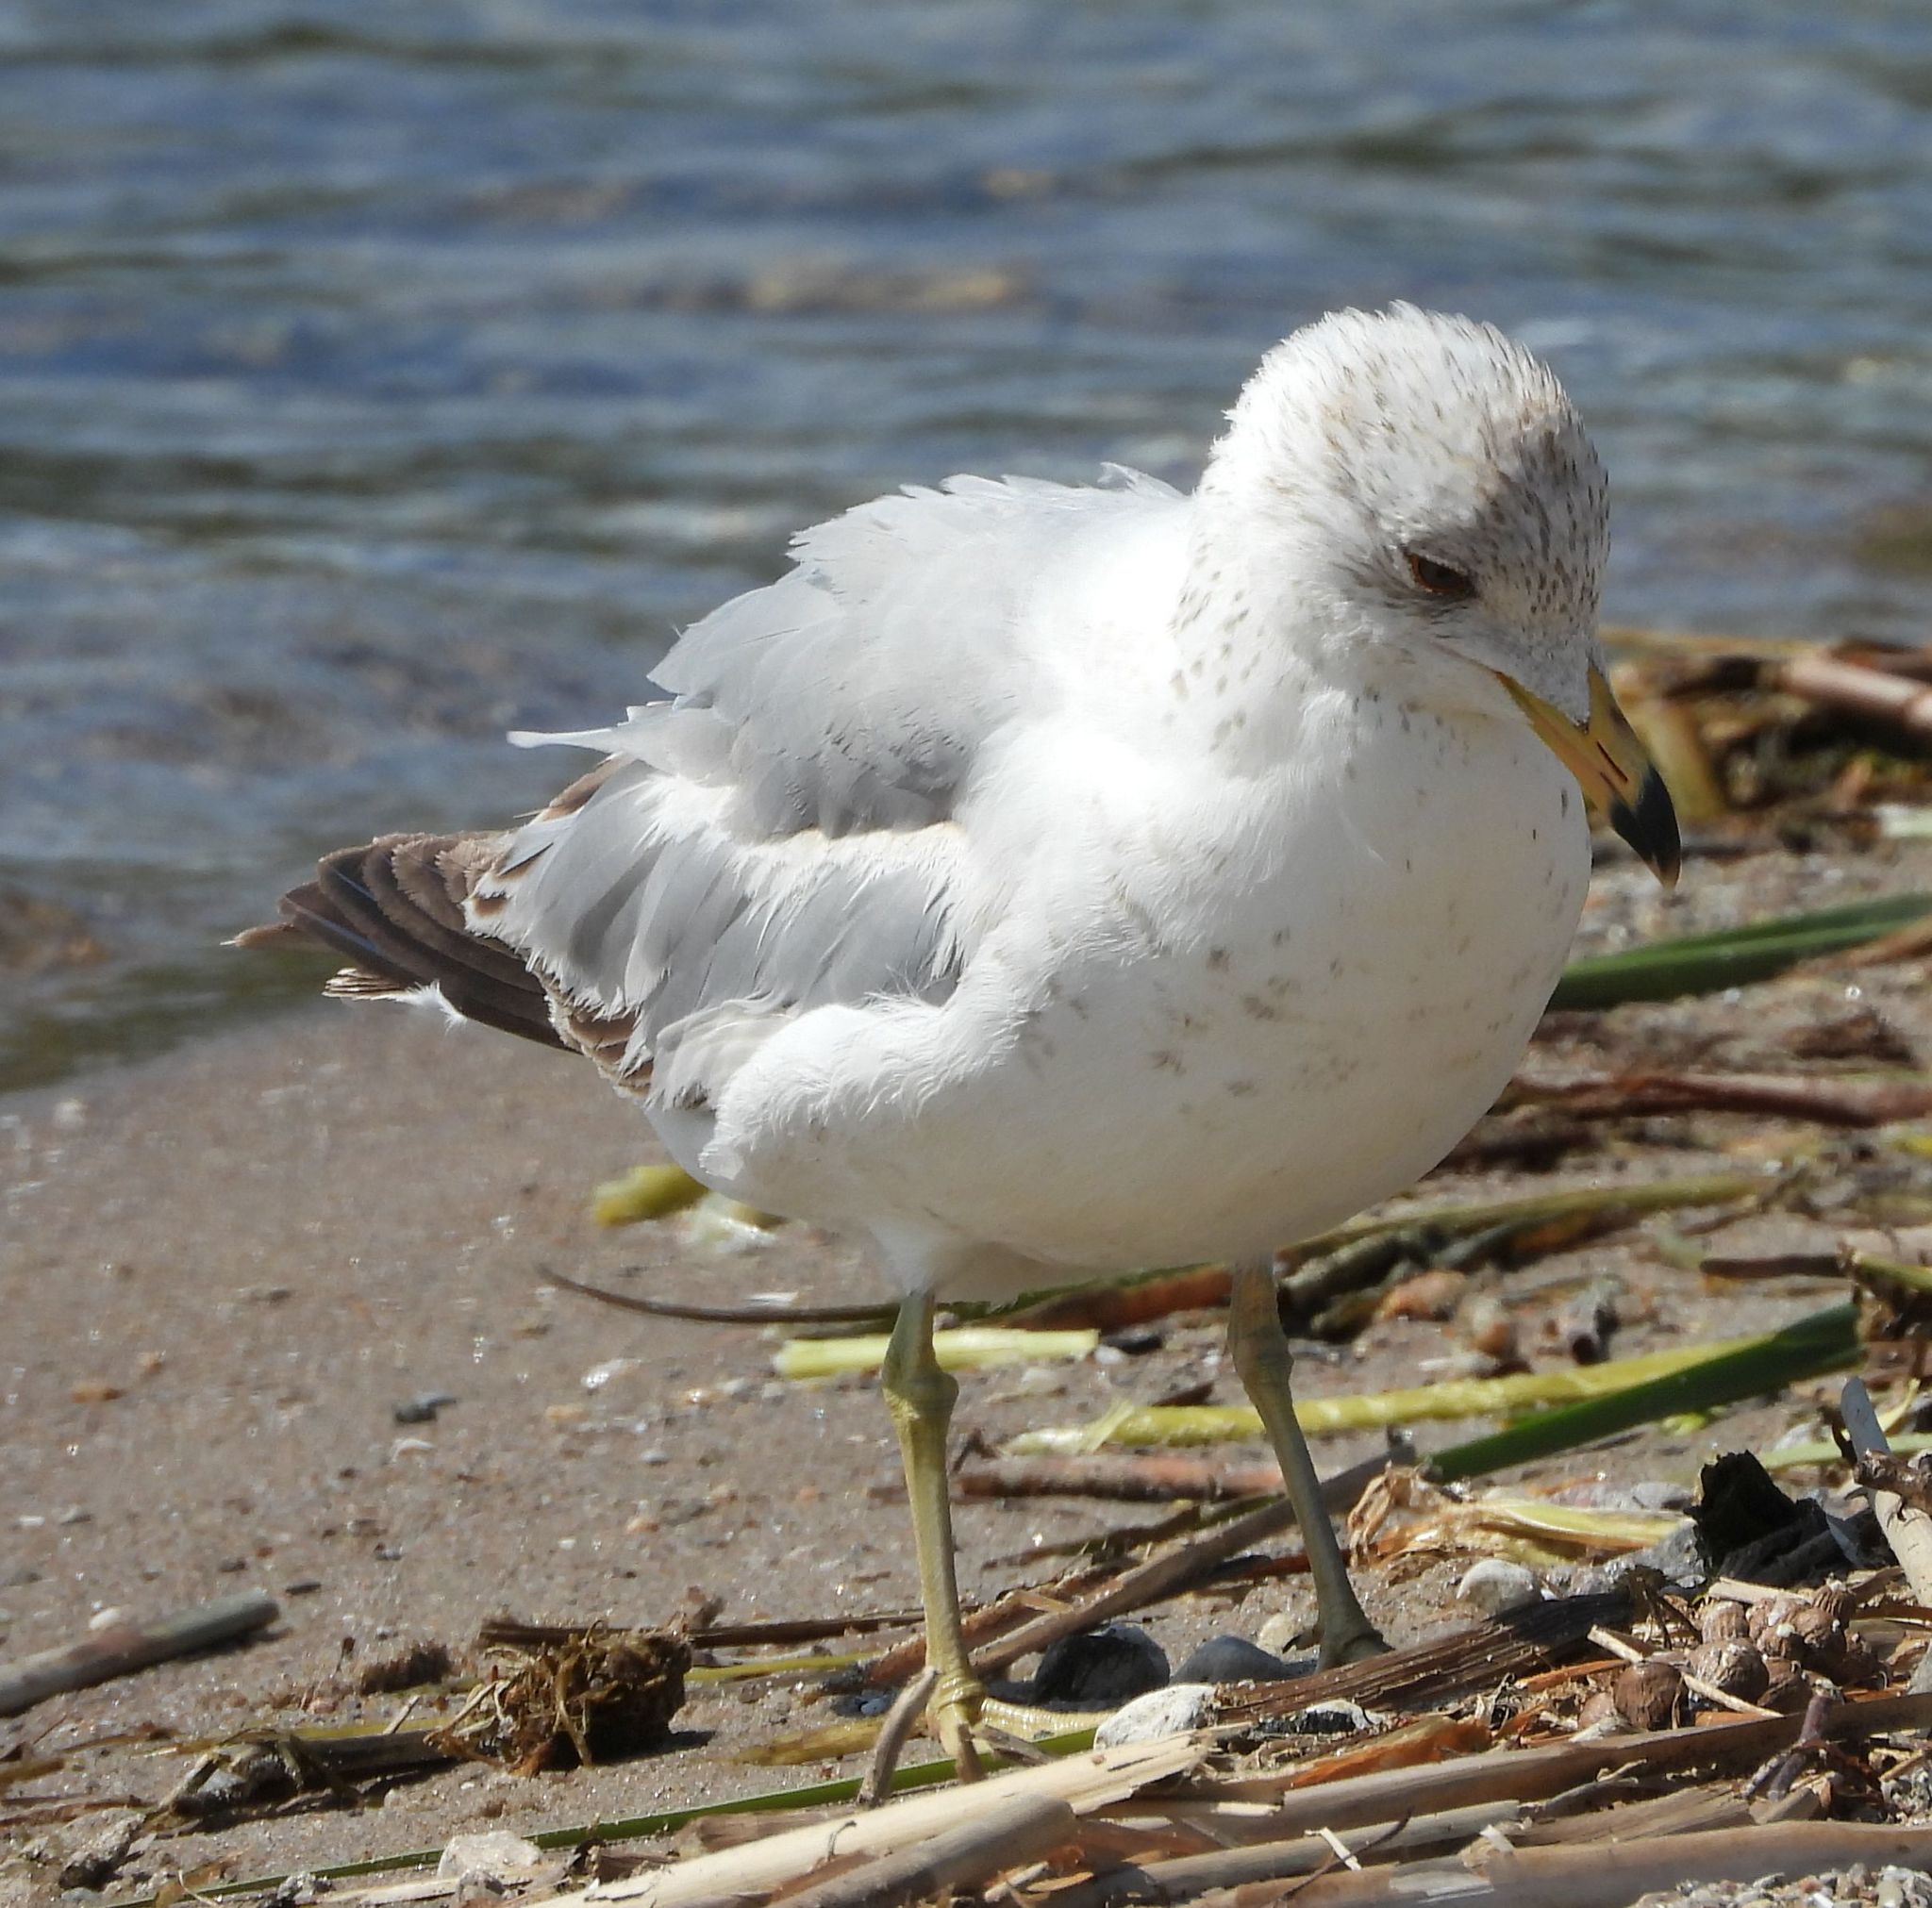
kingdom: Animalia
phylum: Chordata
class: Aves
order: Charadriiformes
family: Laridae
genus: Larus
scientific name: Larus delawarensis
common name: Ring-billed gull
